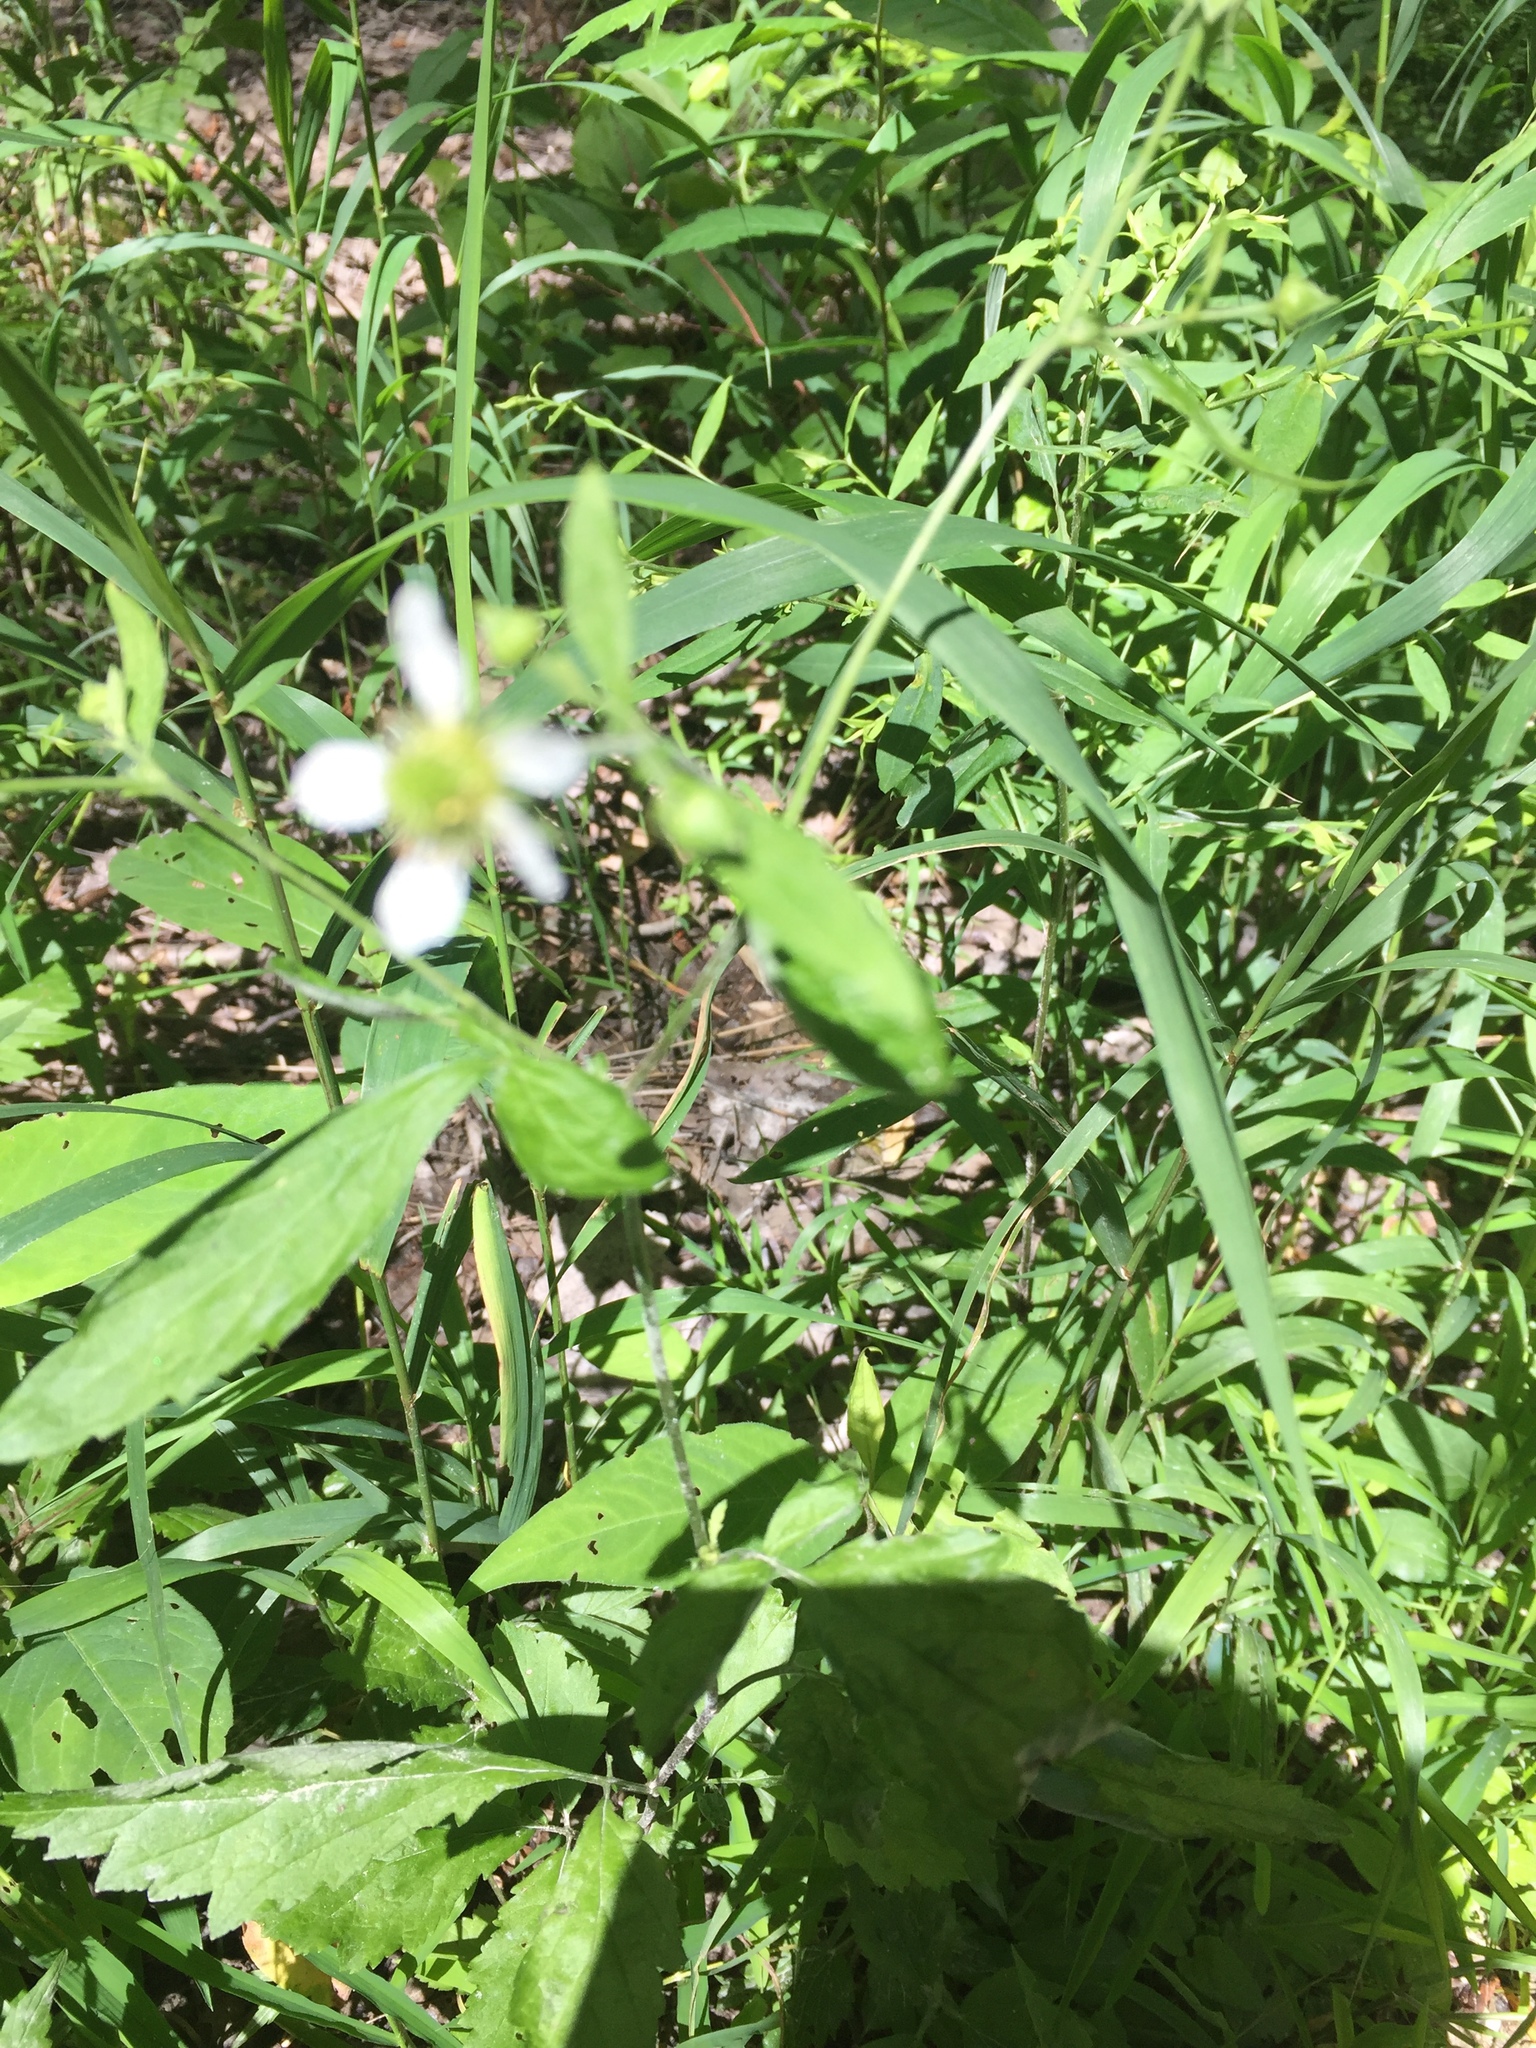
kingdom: Plantae
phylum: Tracheophyta
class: Magnoliopsida
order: Rosales
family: Rosaceae
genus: Geum
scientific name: Geum canadense
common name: White avens
